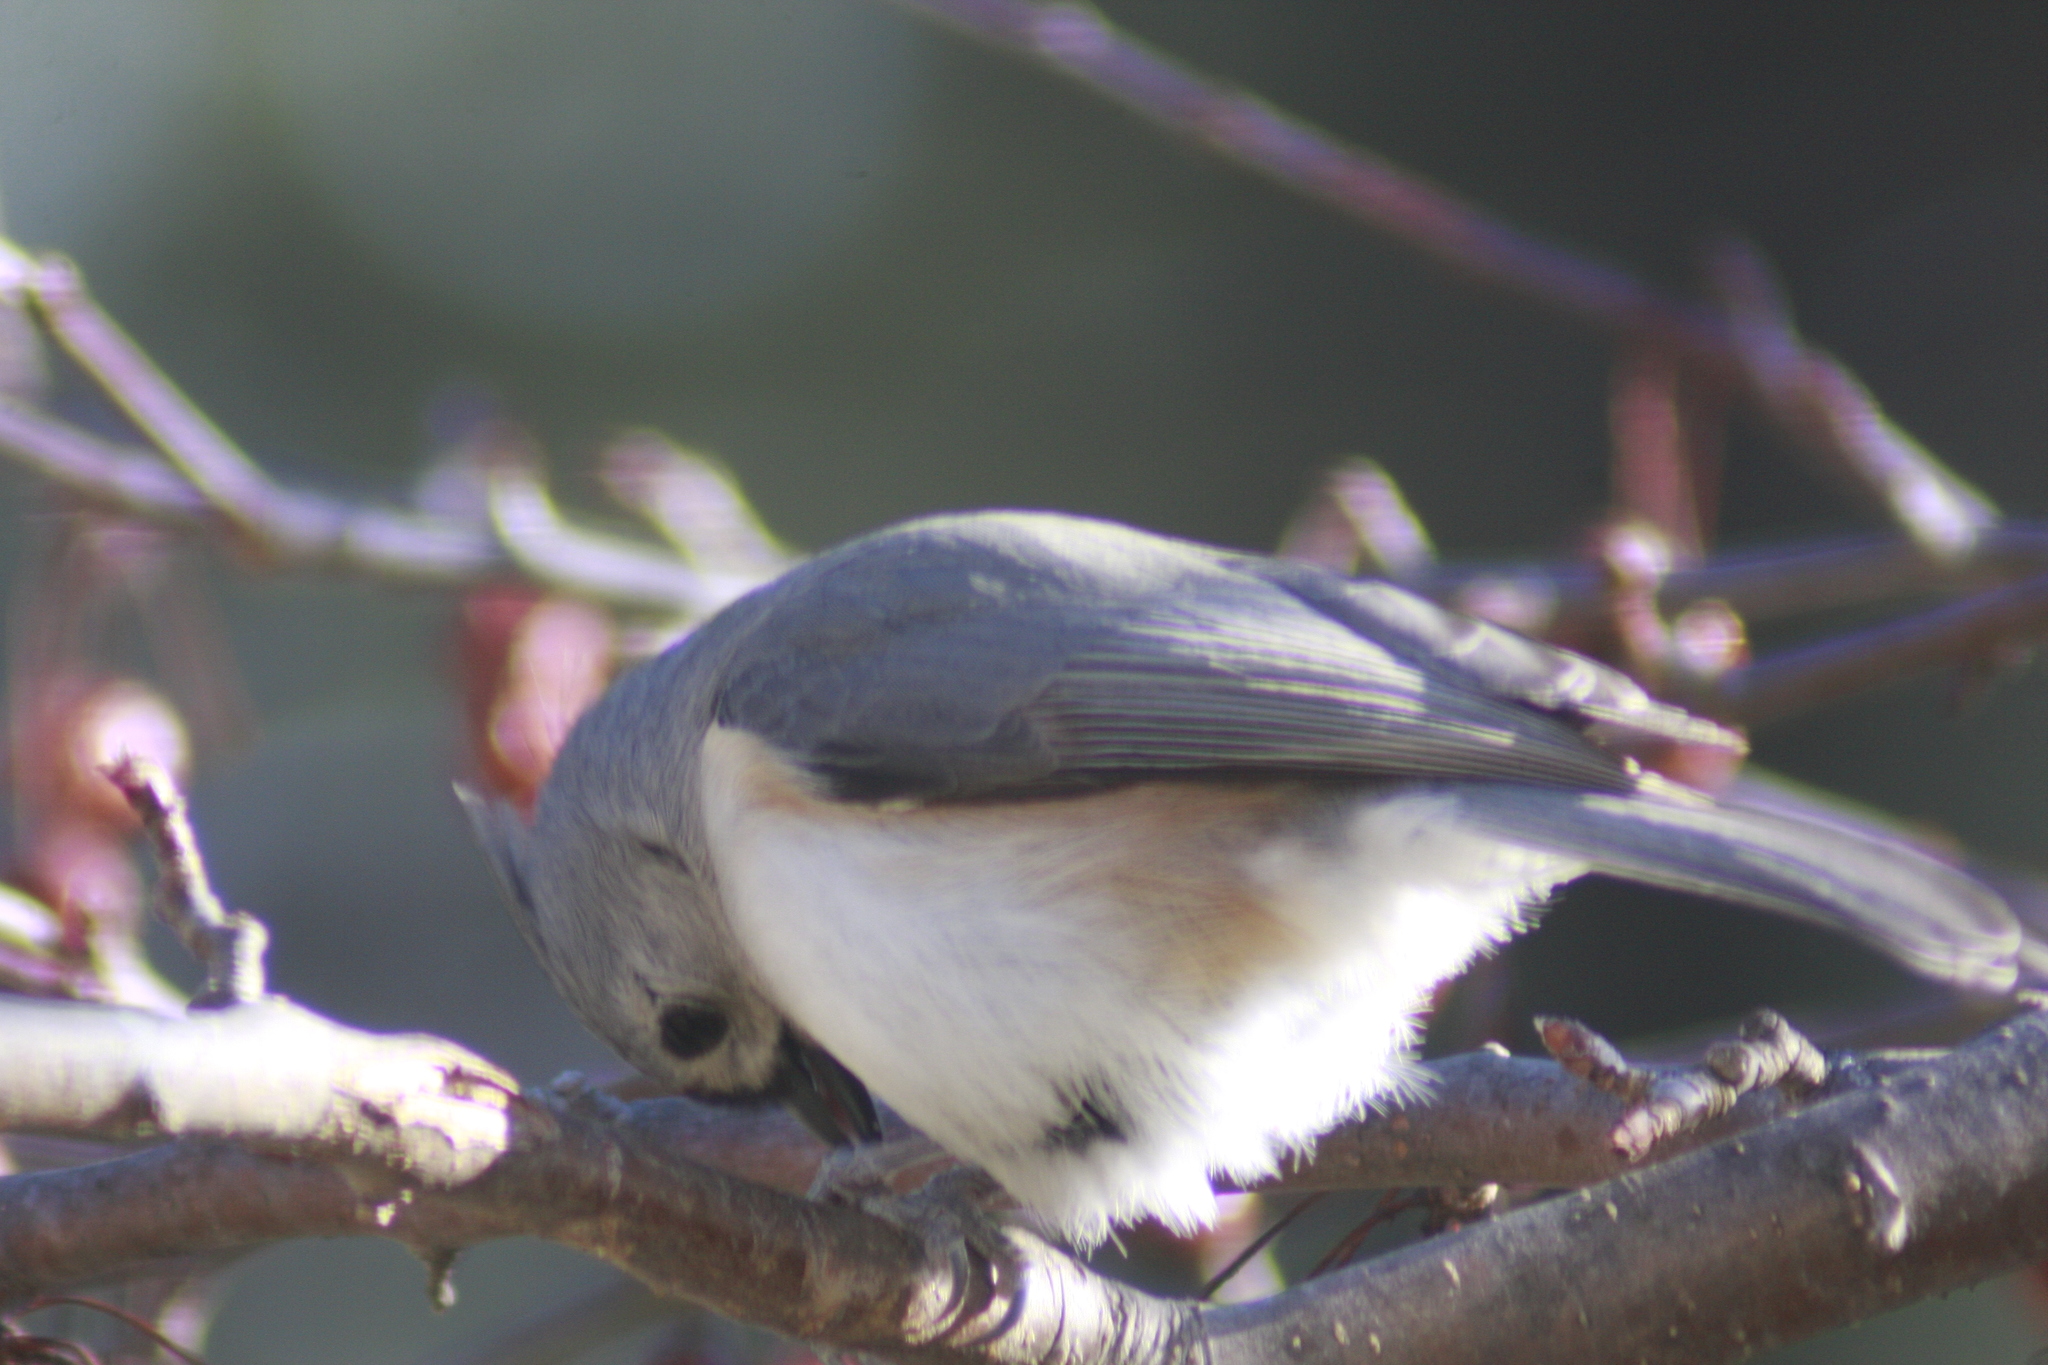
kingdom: Animalia
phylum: Chordata
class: Aves
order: Passeriformes
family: Paridae
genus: Baeolophus
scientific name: Baeolophus bicolor
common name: Tufted titmouse
